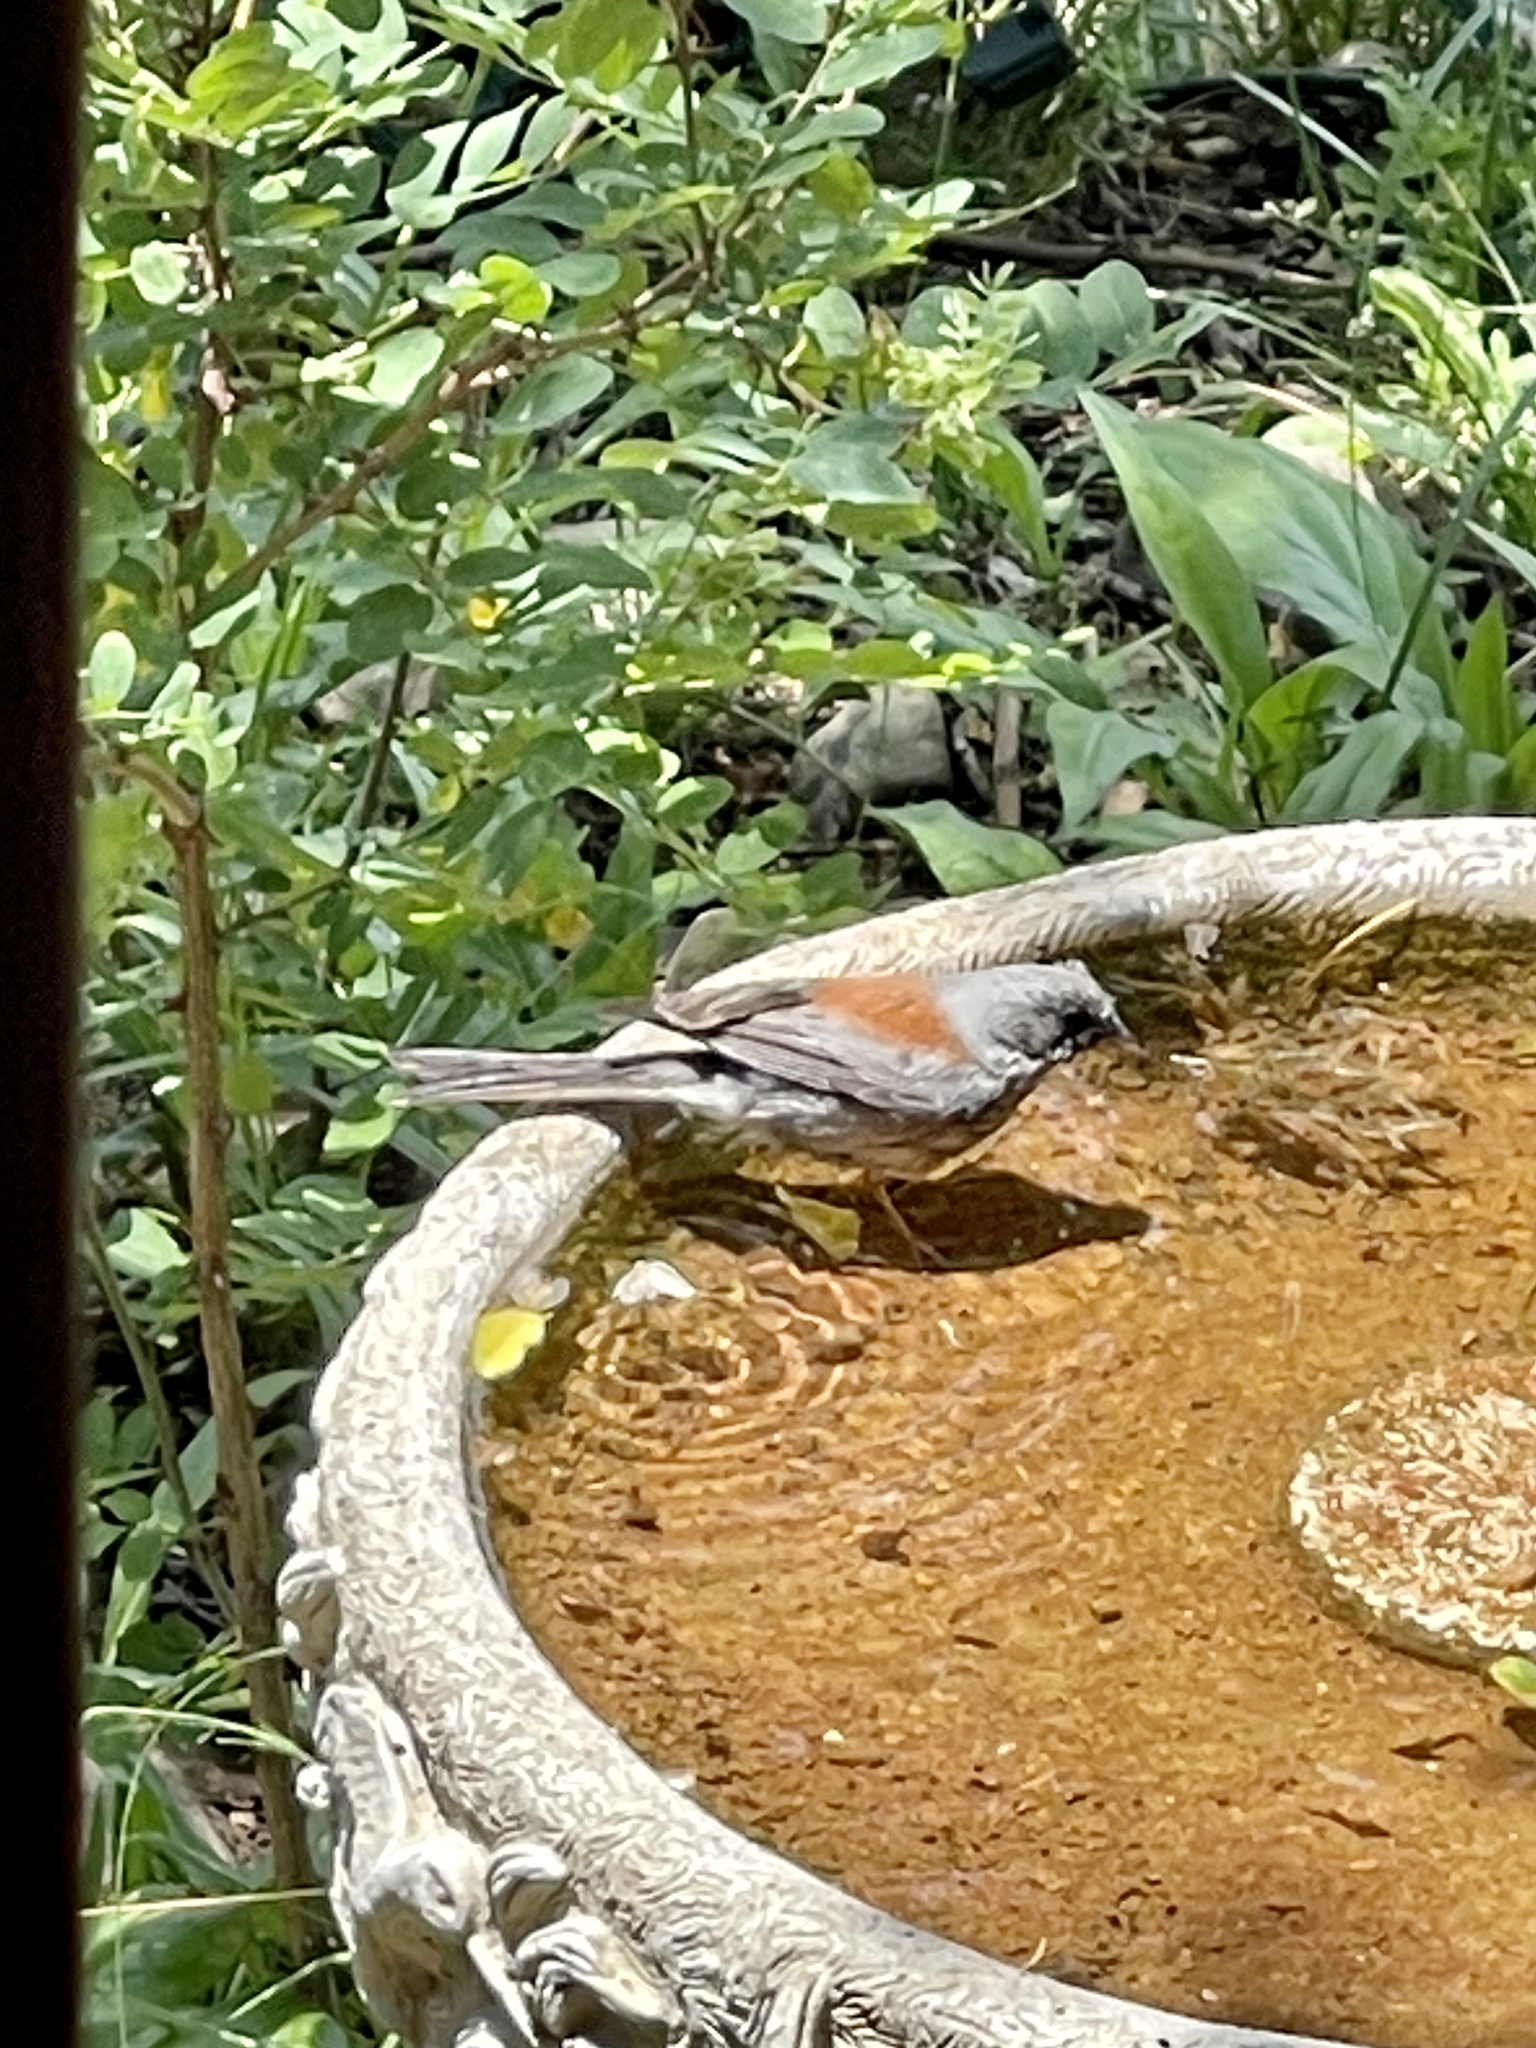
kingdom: Animalia
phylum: Chordata
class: Aves
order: Passeriformes
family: Passerellidae
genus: Junco
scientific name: Junco hyemalis
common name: Dark-eyed junco
